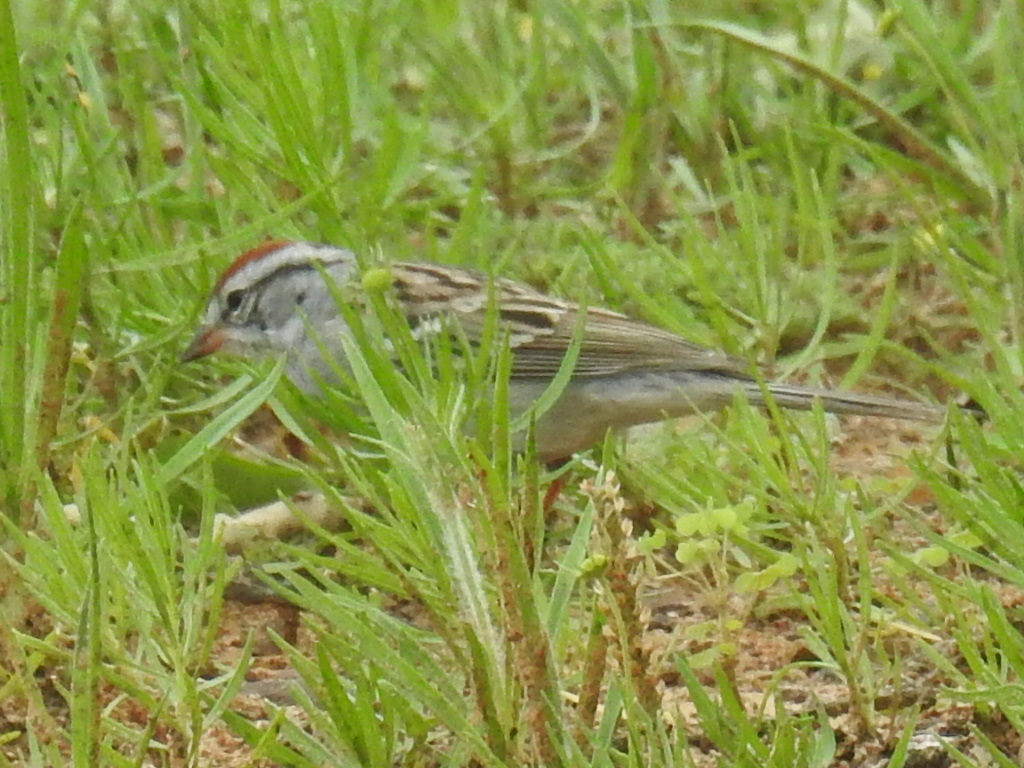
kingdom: Animalia
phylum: Chordata
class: Aves
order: Passeriformes
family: Passerellidae
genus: Spizella
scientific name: Spizella passerina
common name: Chipping sparrow
